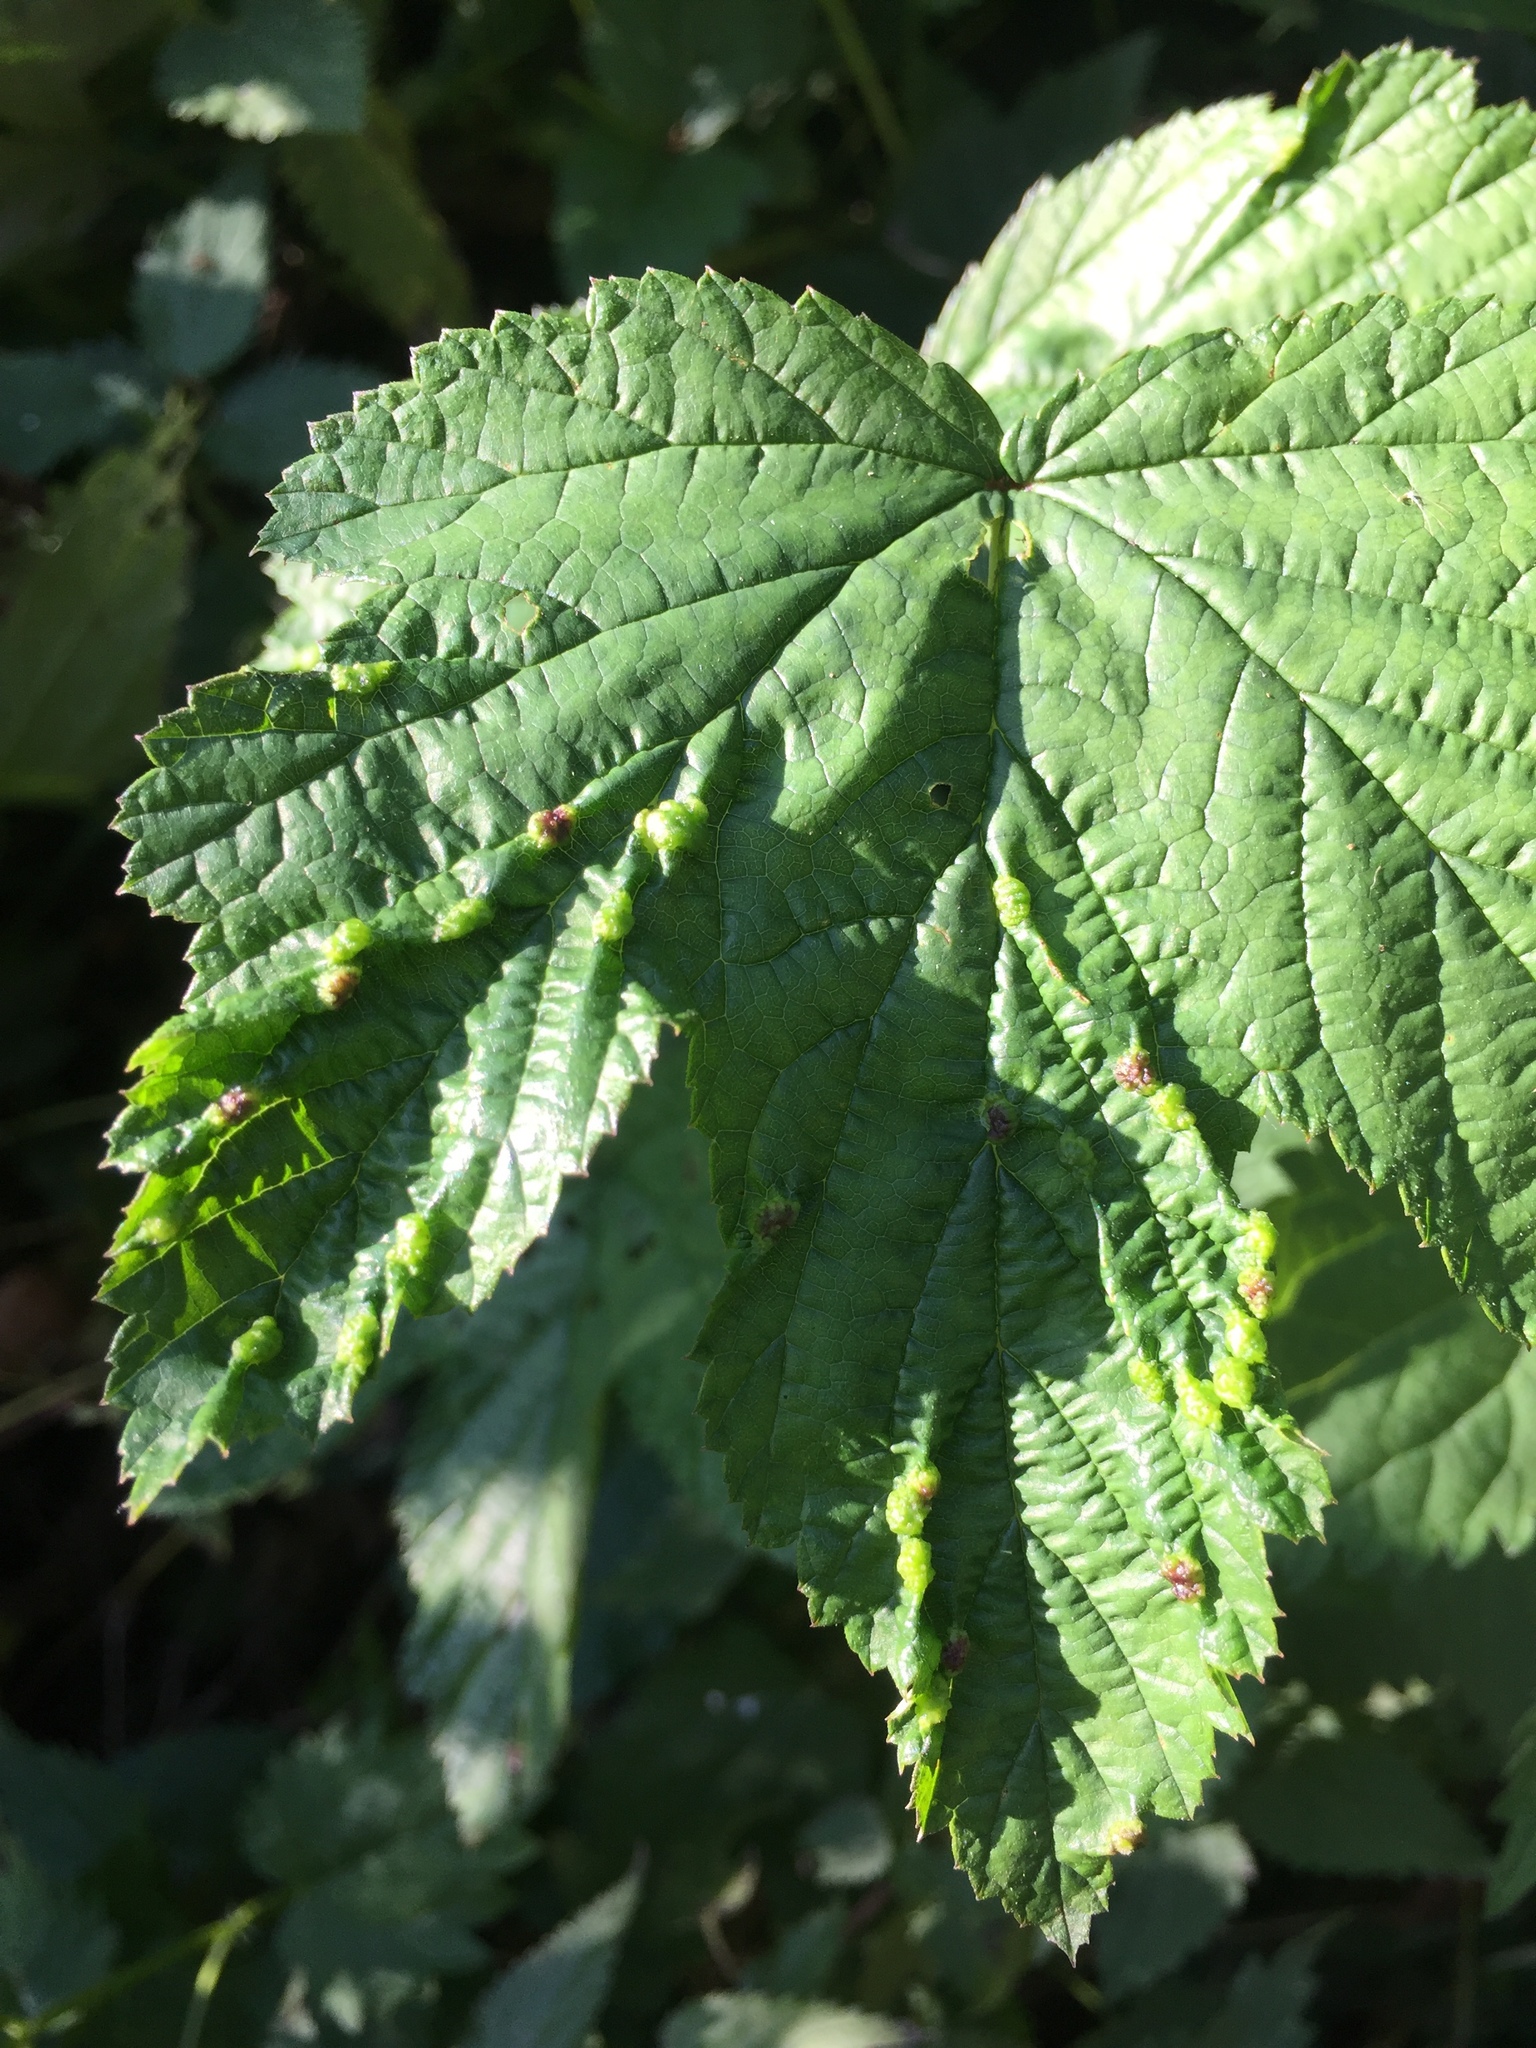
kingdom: Animalia
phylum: Arthropoda
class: Insecta
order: Diptera
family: Cecidomyiidae
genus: Dasineura
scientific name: Dasineura ulmaria
